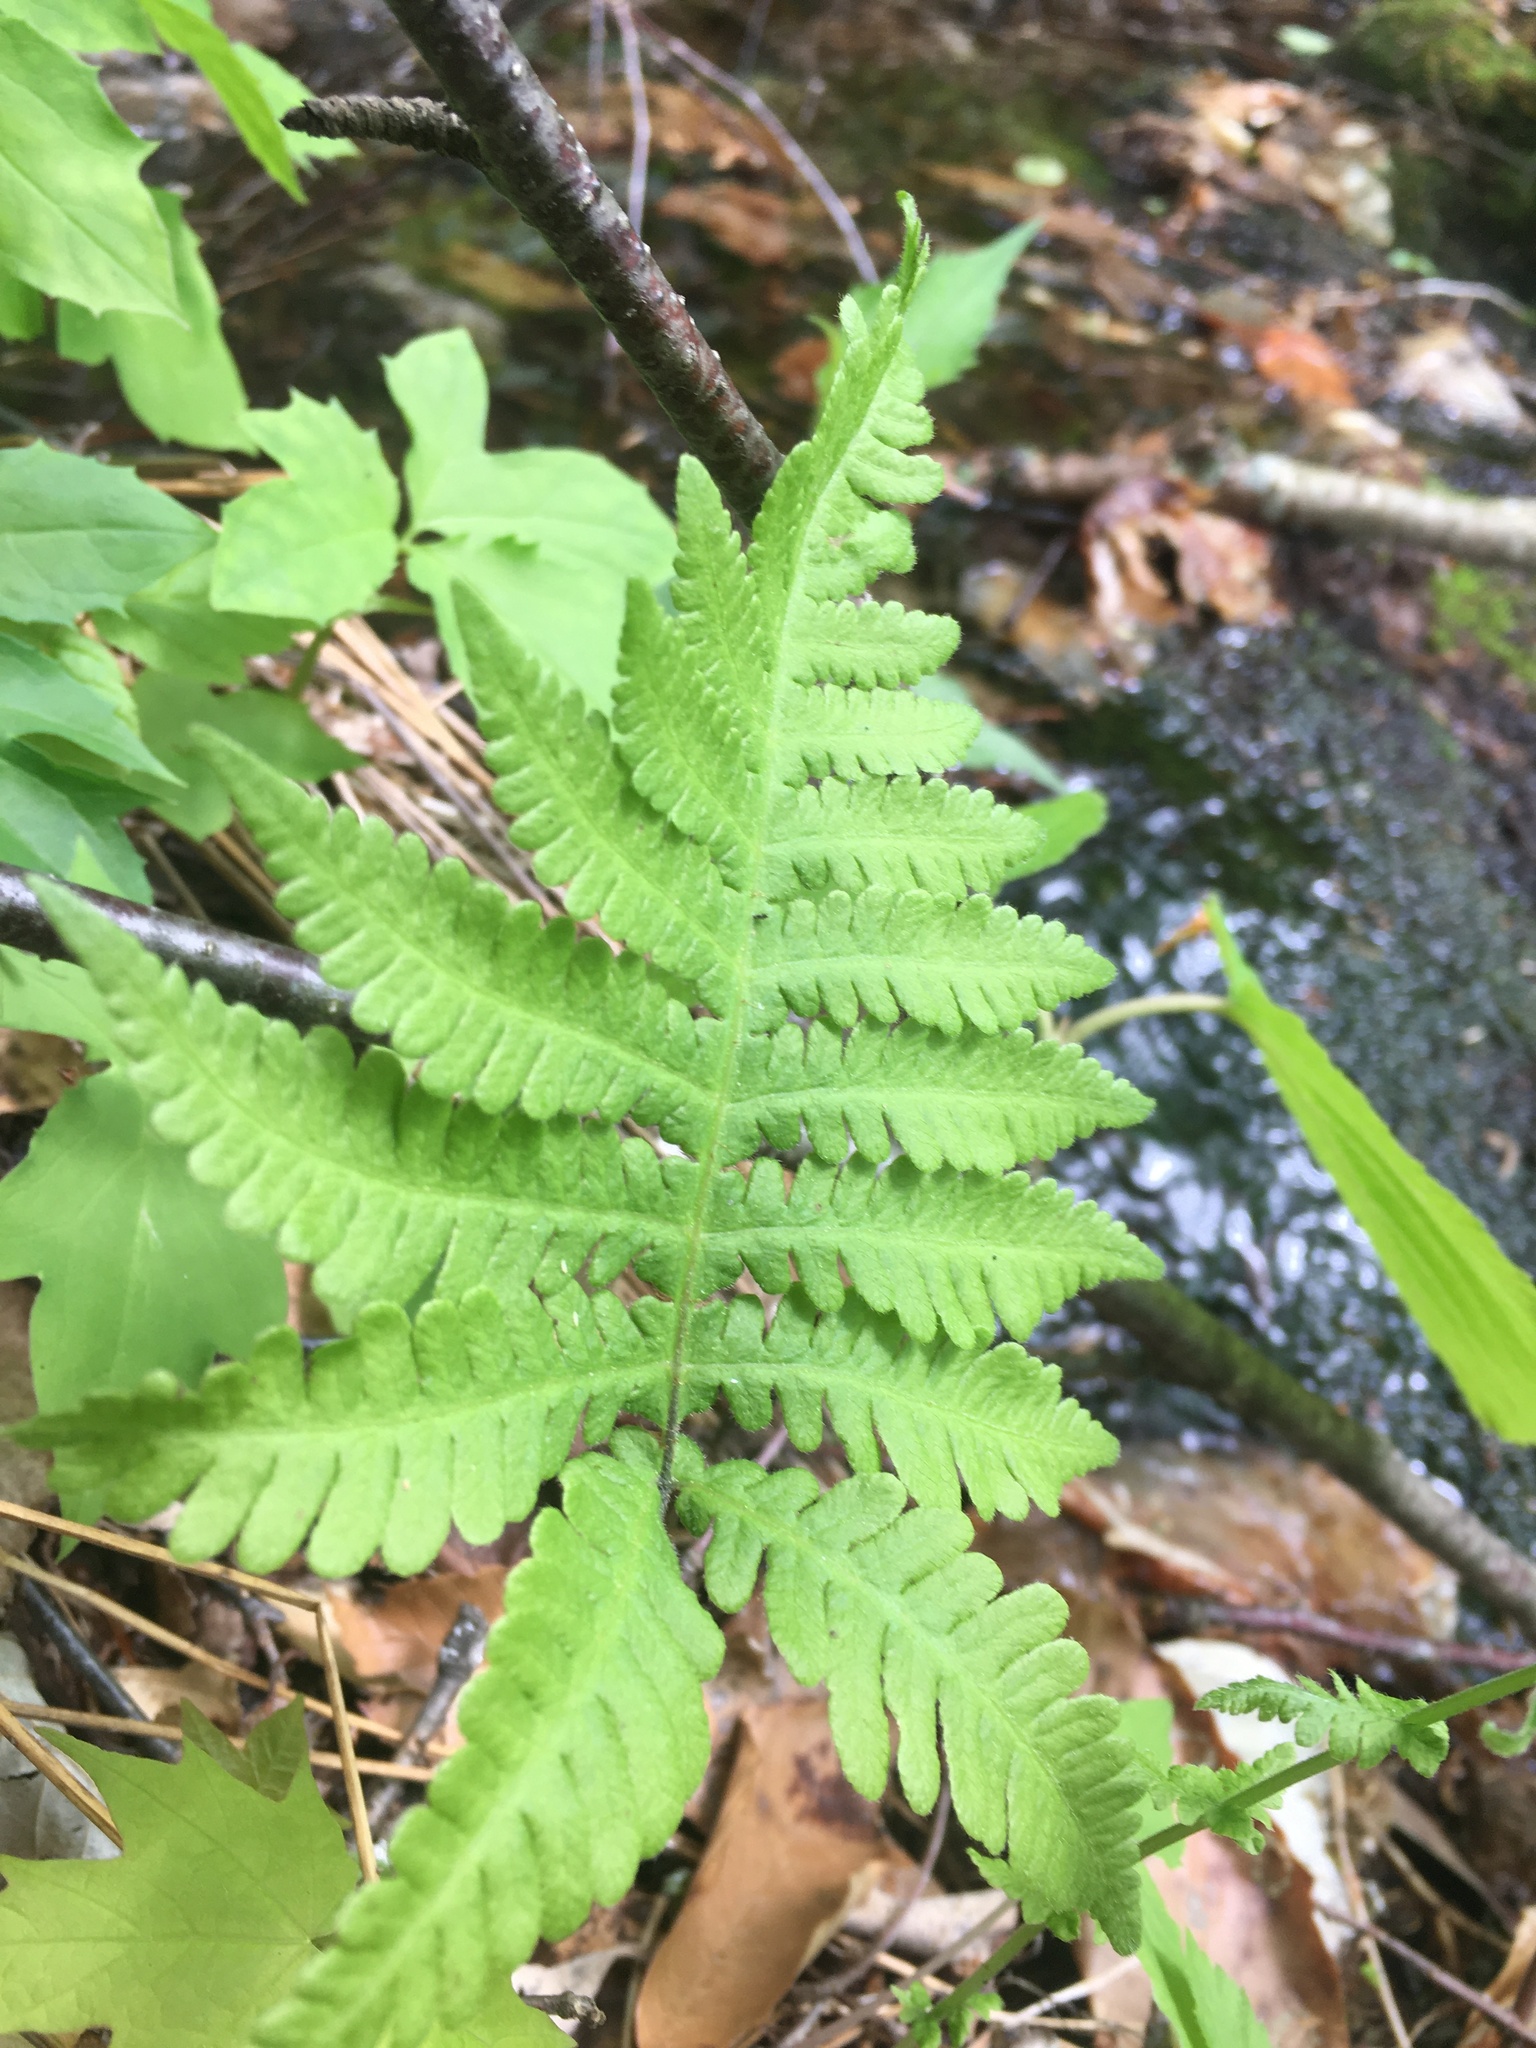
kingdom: Plantae
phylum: Tracheophyta
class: Polypodiopsida
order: Polypodiales
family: Thelypteridaceae
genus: Phegopteris
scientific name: Phegopteris connectilis
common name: Beech fern
